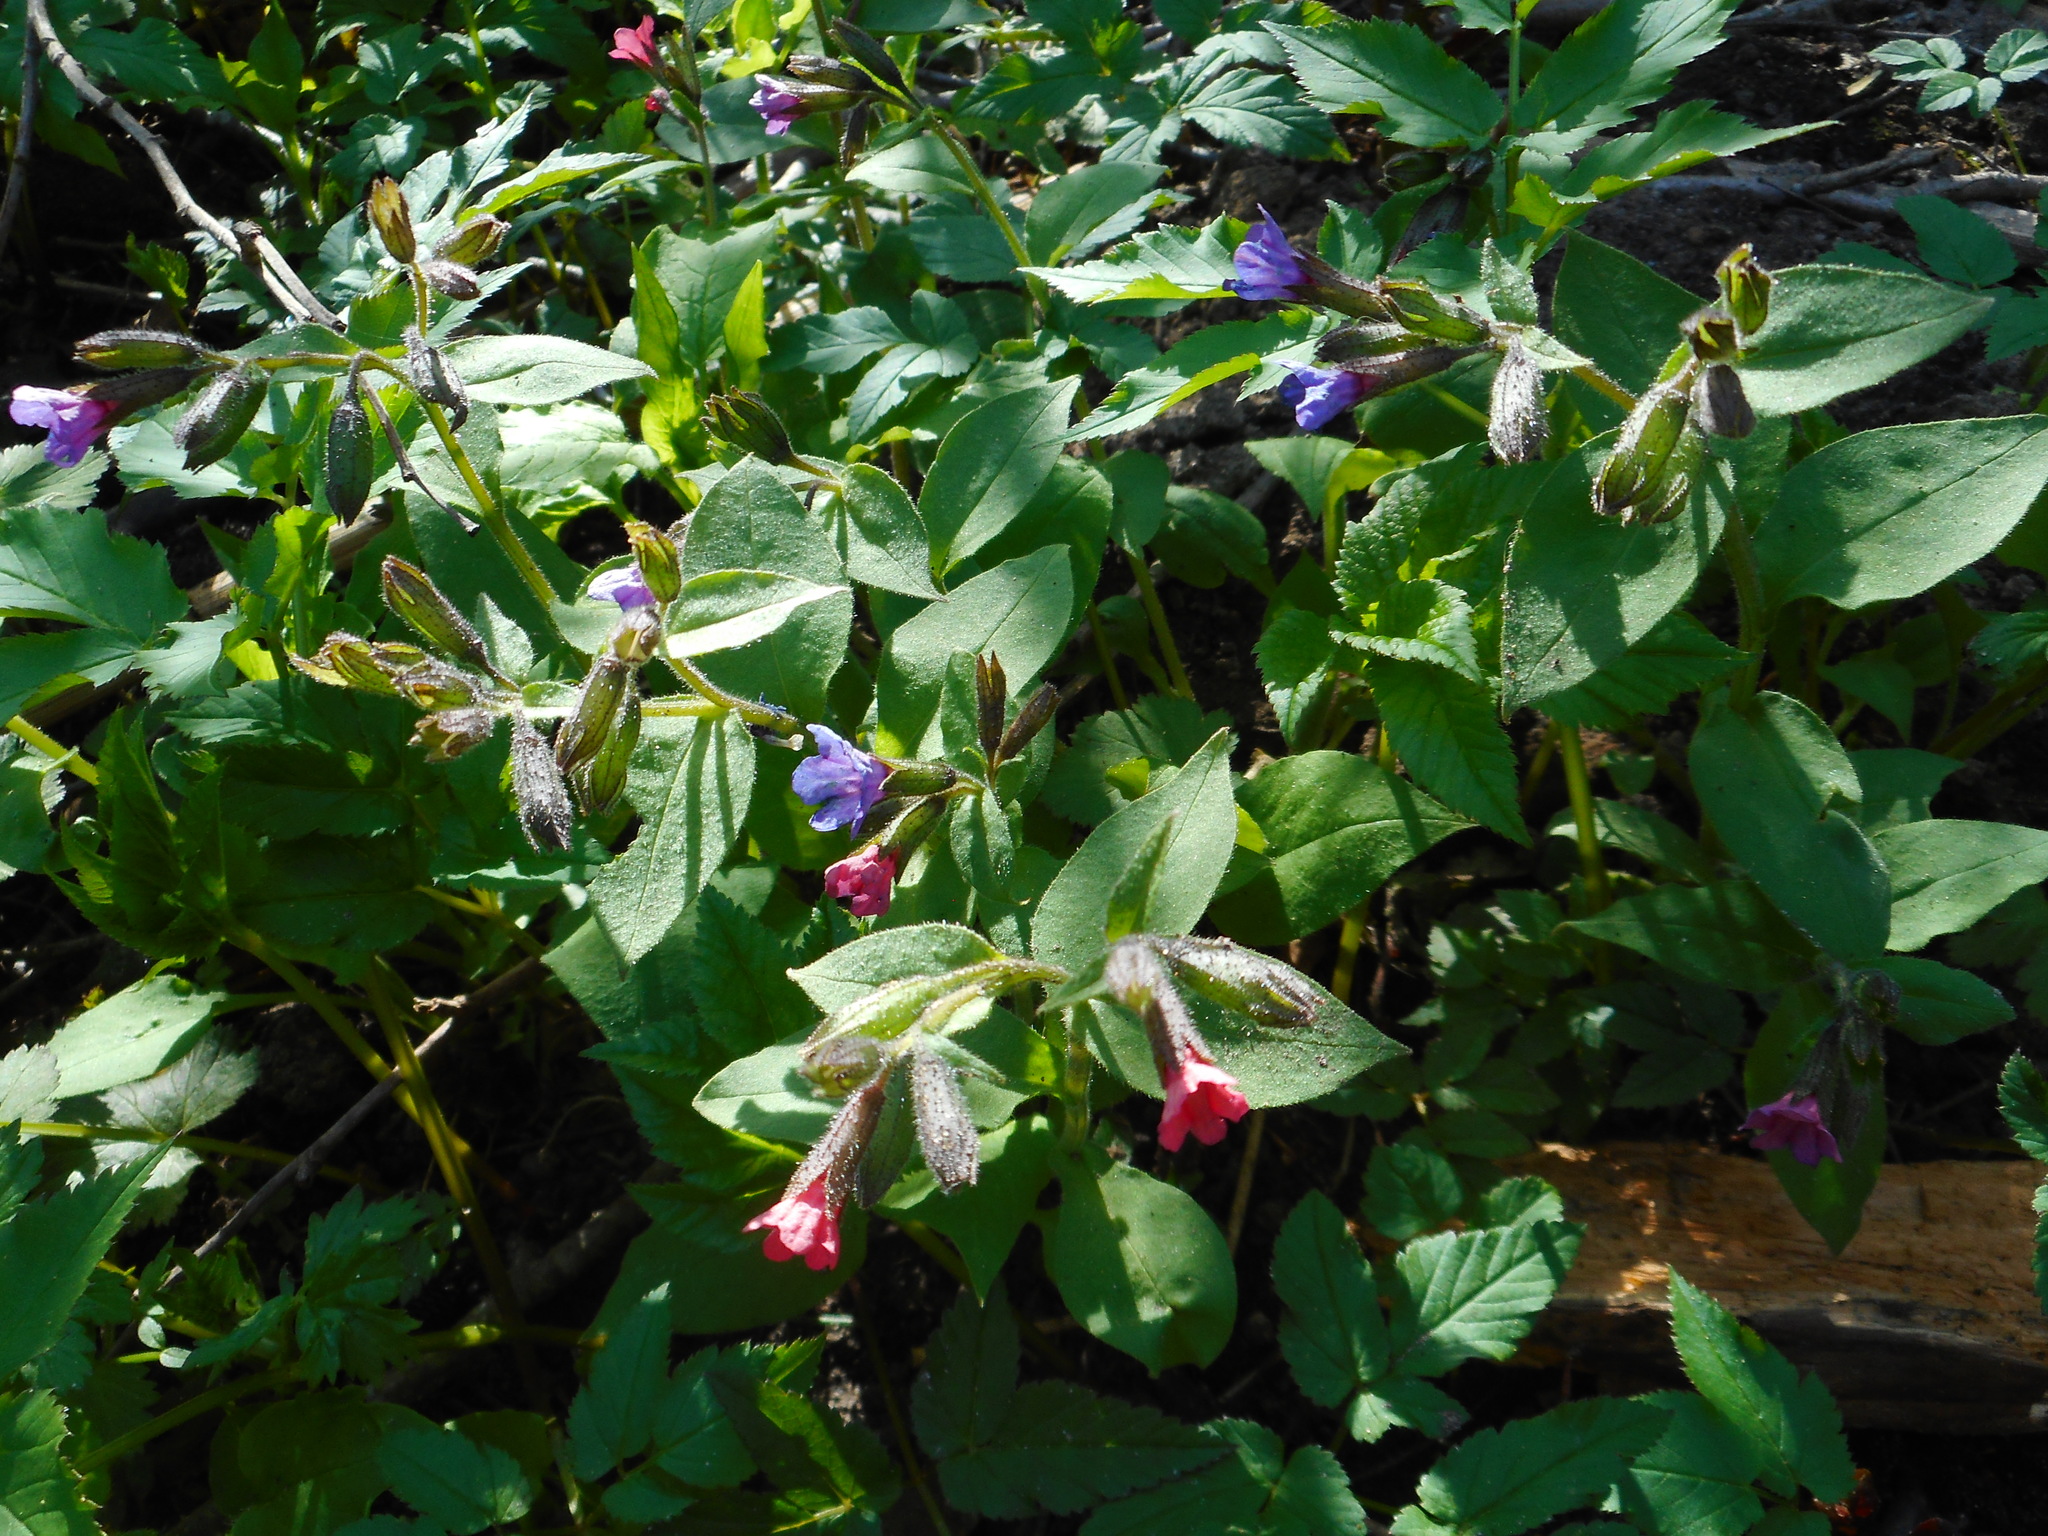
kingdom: Plantae
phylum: Tracheophyta
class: Magnoliopsida
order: Boraginales
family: Boraginaceae
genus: Pulmonaria
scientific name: Pulmonaria obscura
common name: Suffolk lungwort
